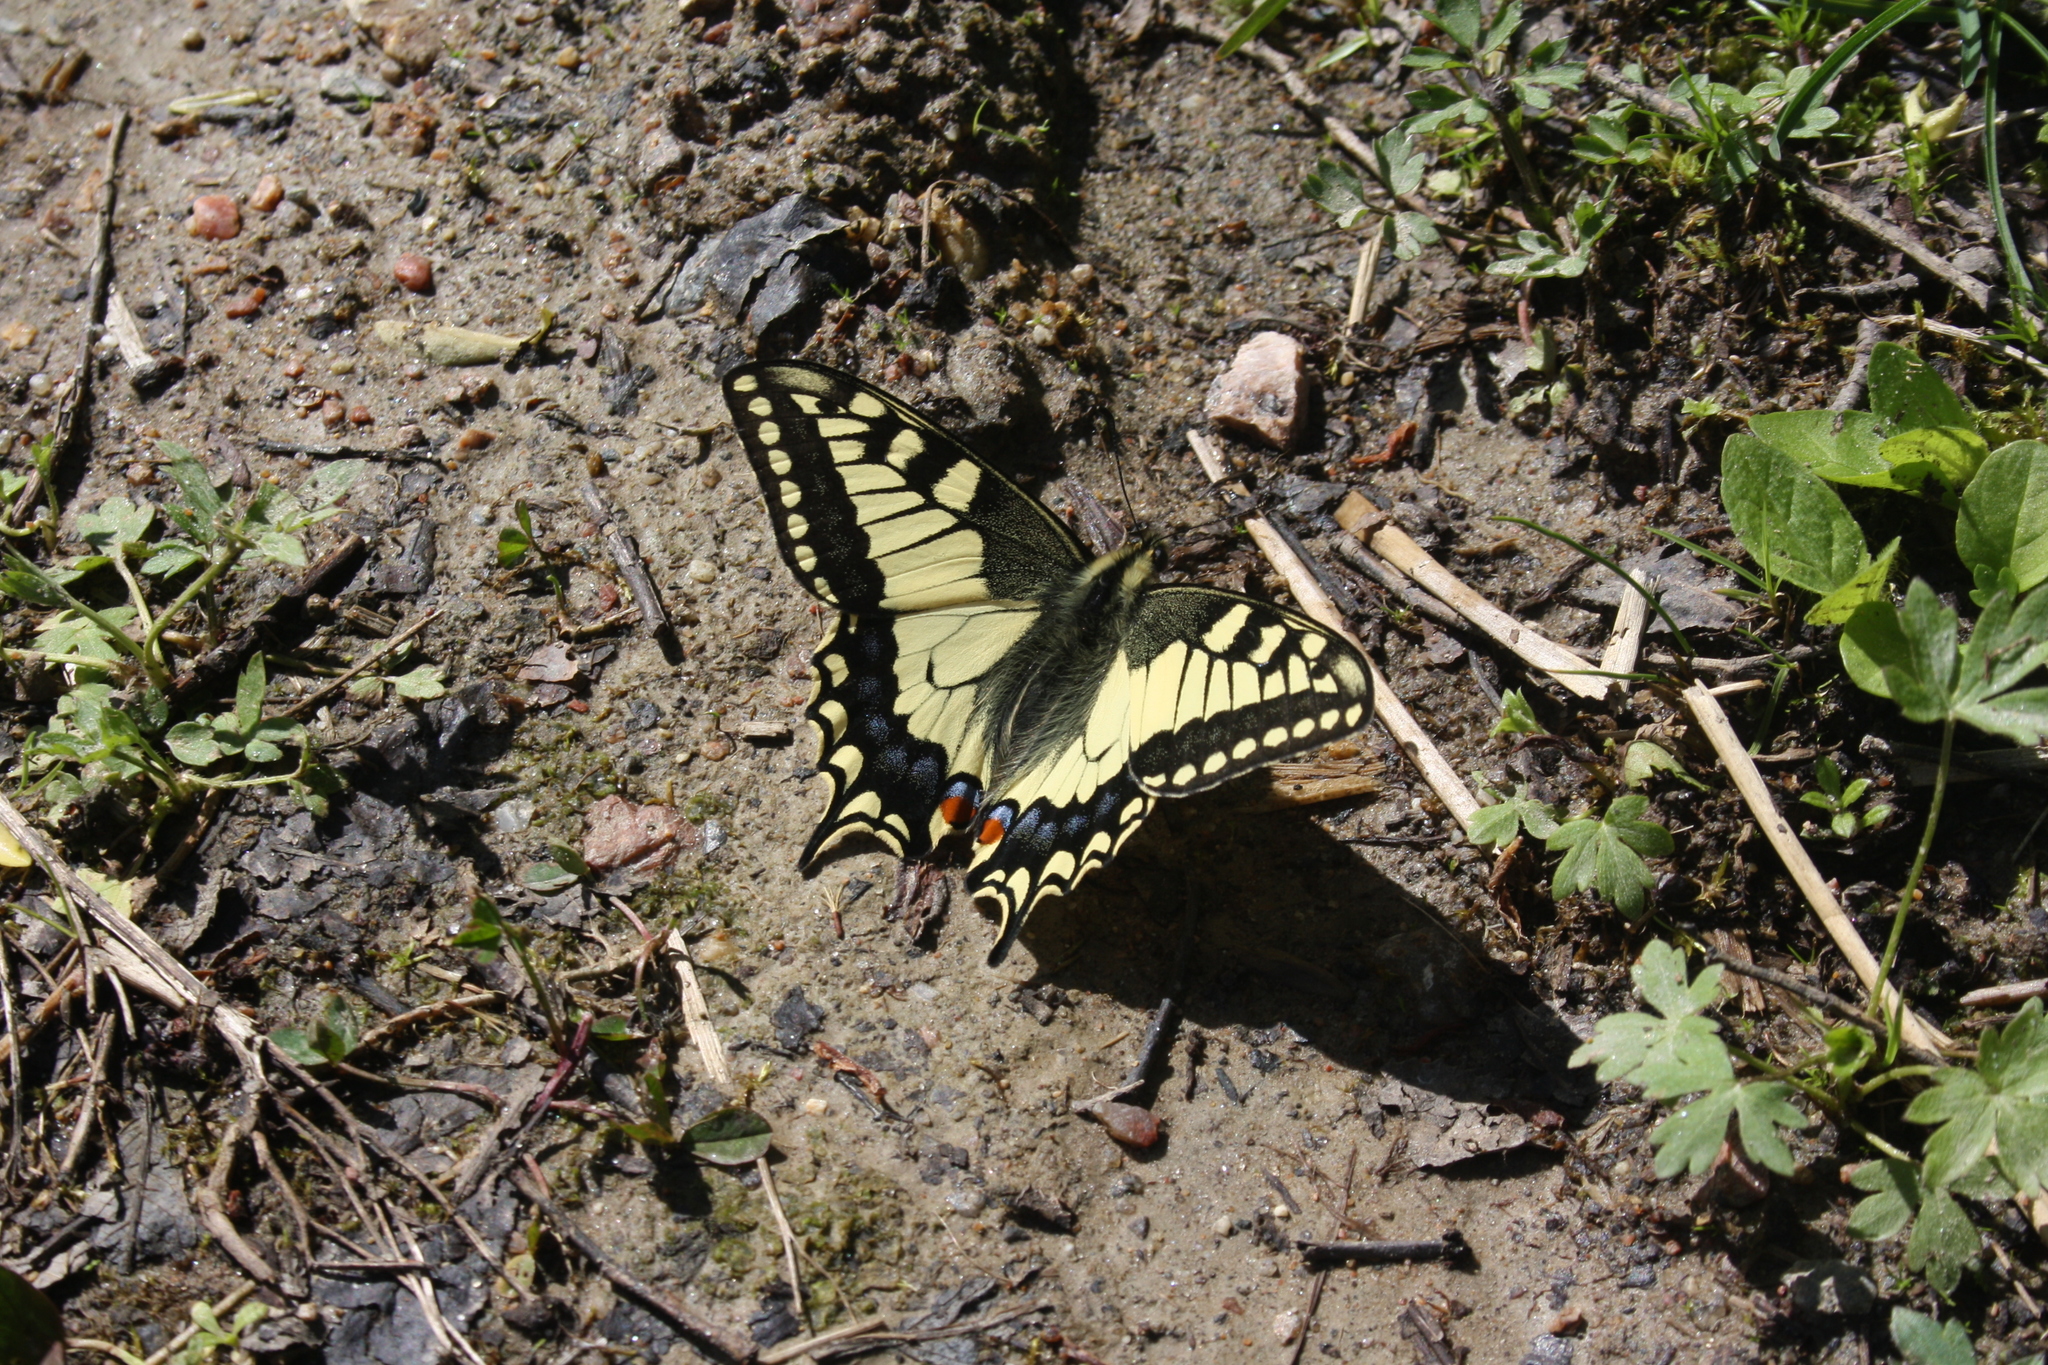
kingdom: Animalia
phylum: Arthropoda
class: Insecta
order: Lepidoptera
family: Papilionidae
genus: Papilio
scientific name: Papilio machaon
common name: Swallowtail
